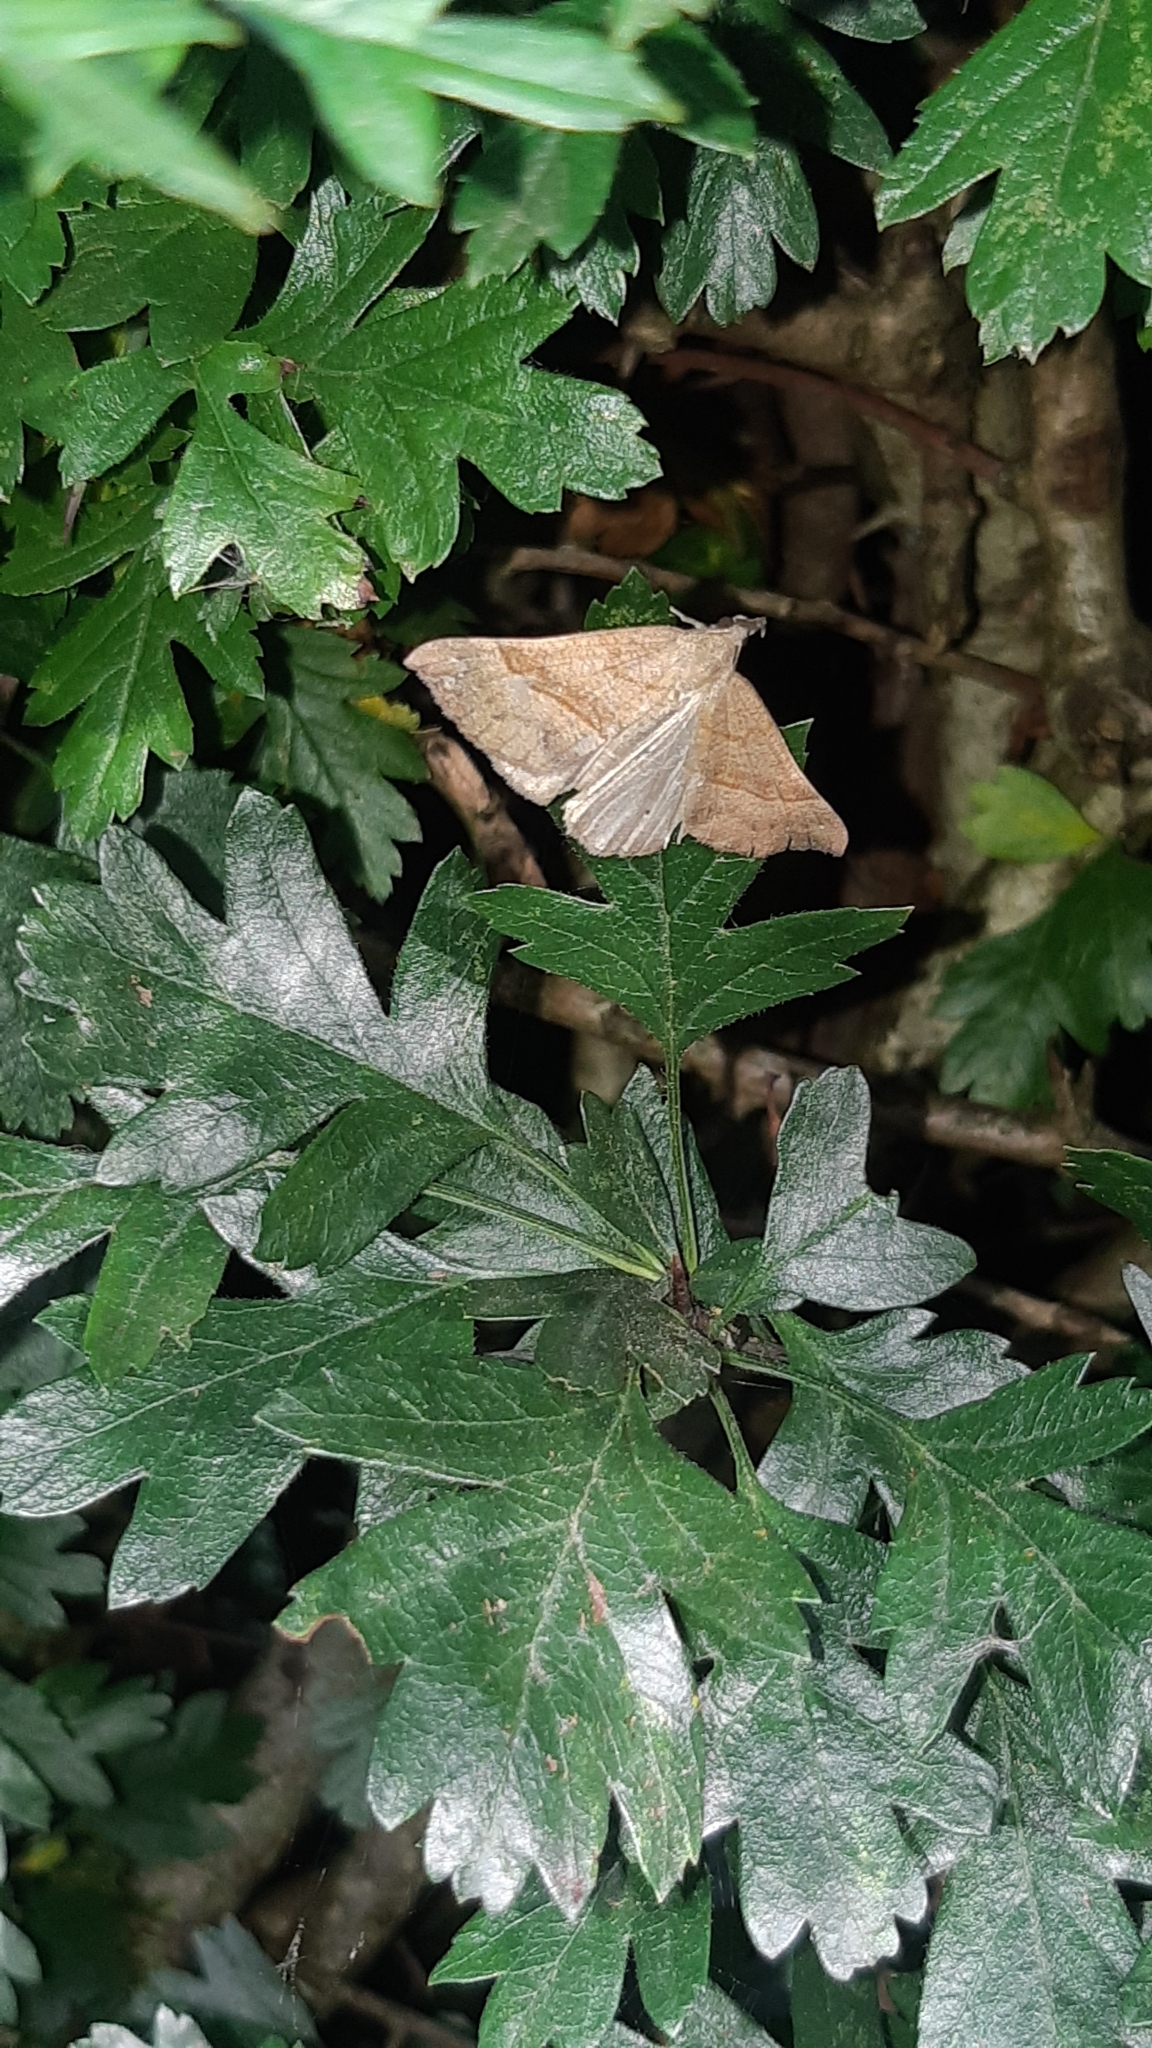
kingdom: Animalia
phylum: Arthropoda
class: Insecta
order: Lepidoptera
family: Erebidae
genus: Hypena
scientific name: Hypena proboscidalis
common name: Snout
